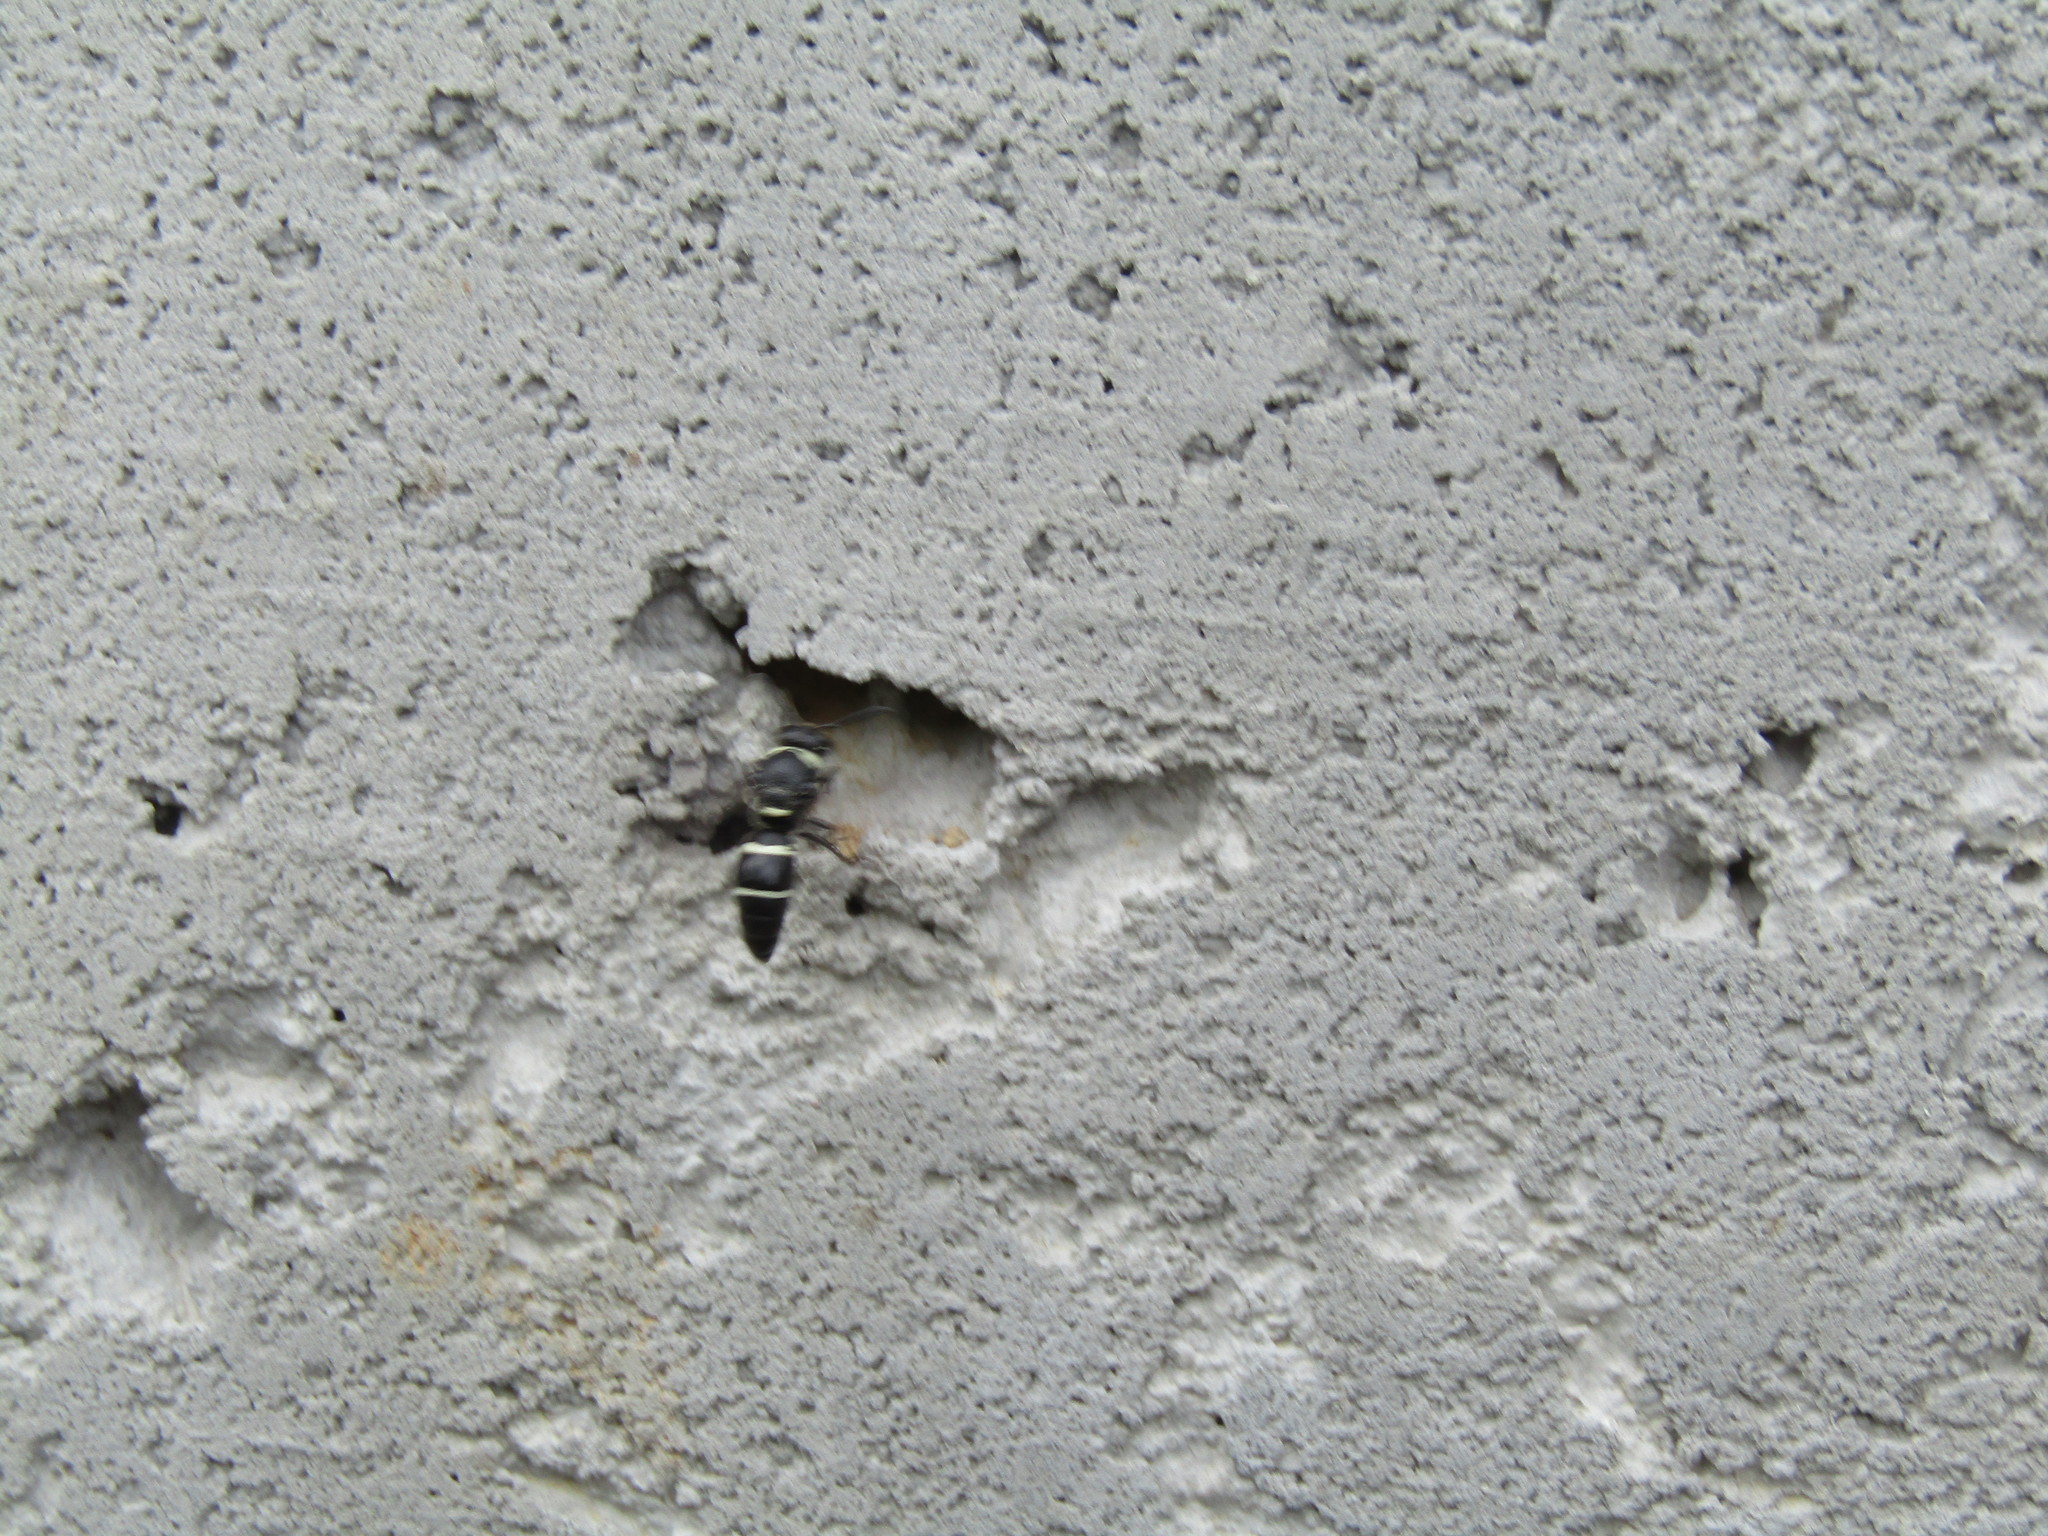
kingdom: Animalia
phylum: Arthropoda
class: Insecta
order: Hymenoptera
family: Eumenidae
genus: Euodynerus
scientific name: Euodynerus megaera
